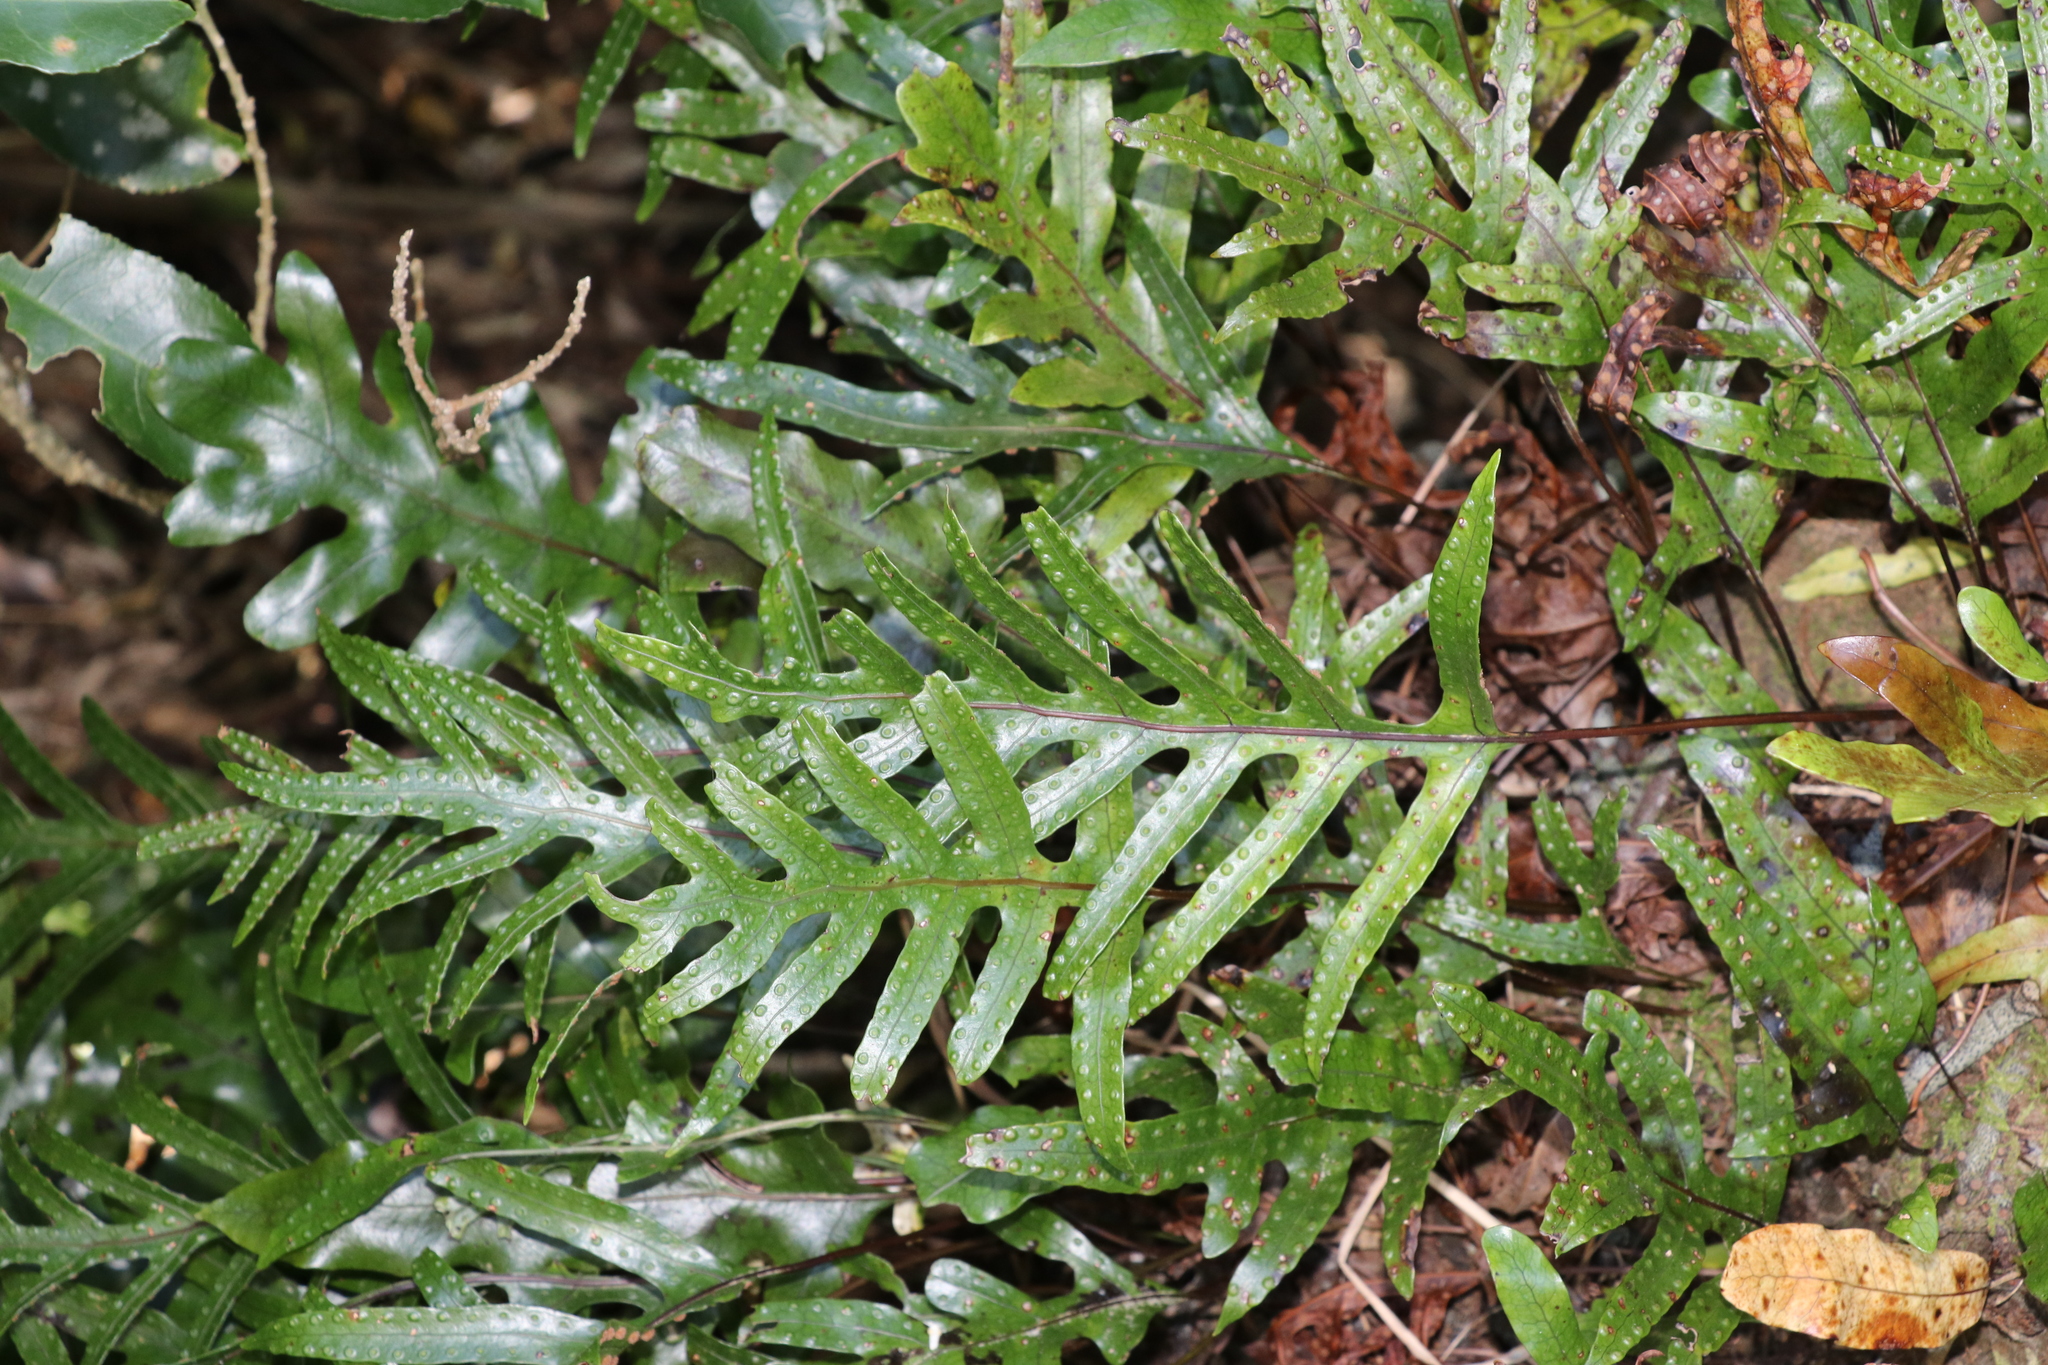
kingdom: Plantae
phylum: Tracheophyta
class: Polypodiopsida
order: Polypodiales
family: Polypodiaceae
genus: Lecanopteris
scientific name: Lecanopteris pustulata
